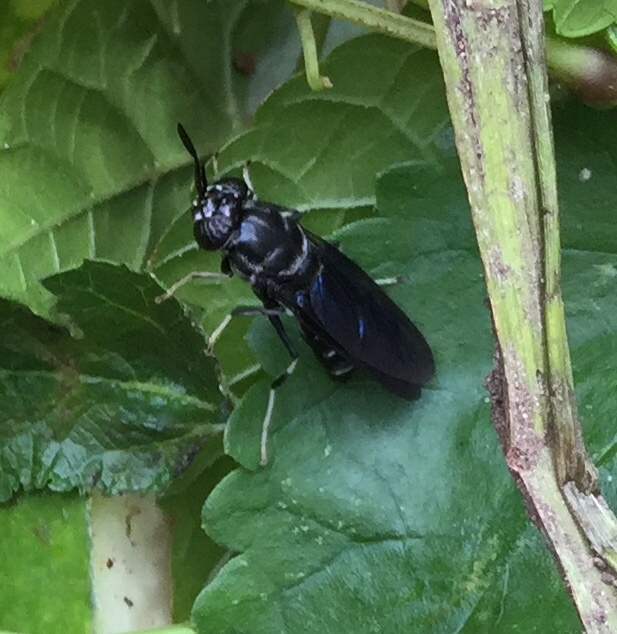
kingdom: Animalia
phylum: Arthropoda
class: Insecta
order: Diptera
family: Stratiomyidae
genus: Hermetia
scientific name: Hermetia illucens
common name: Black soldier fly
